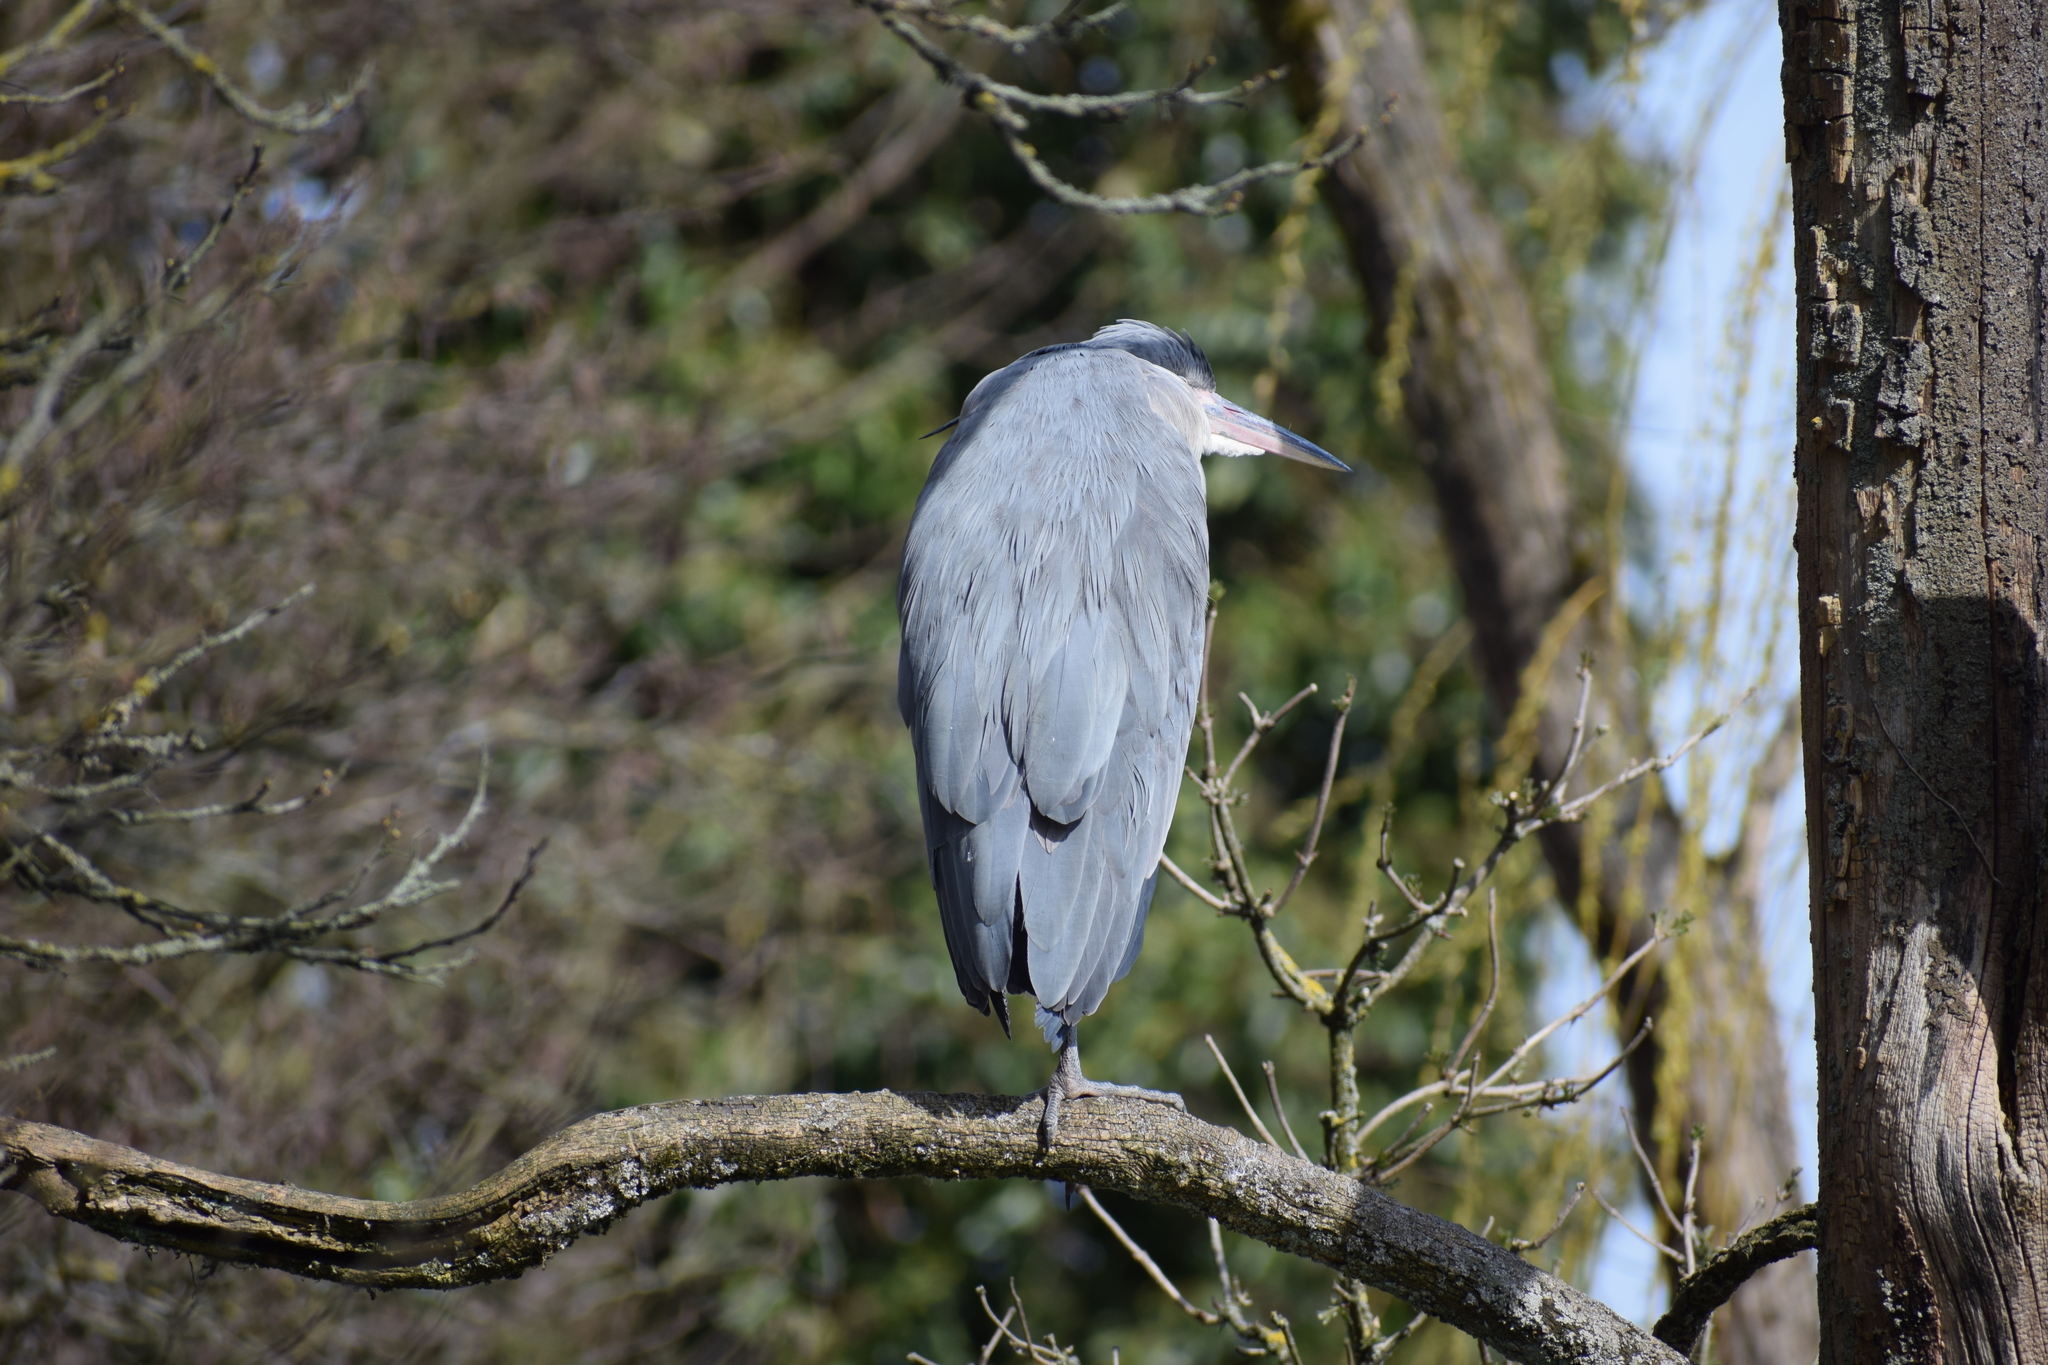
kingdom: Animalia
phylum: Chordata
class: Aves
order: Pelecaniformes
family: Ardeidae
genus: Ardea
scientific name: Ardea cinerea
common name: Grey heron
